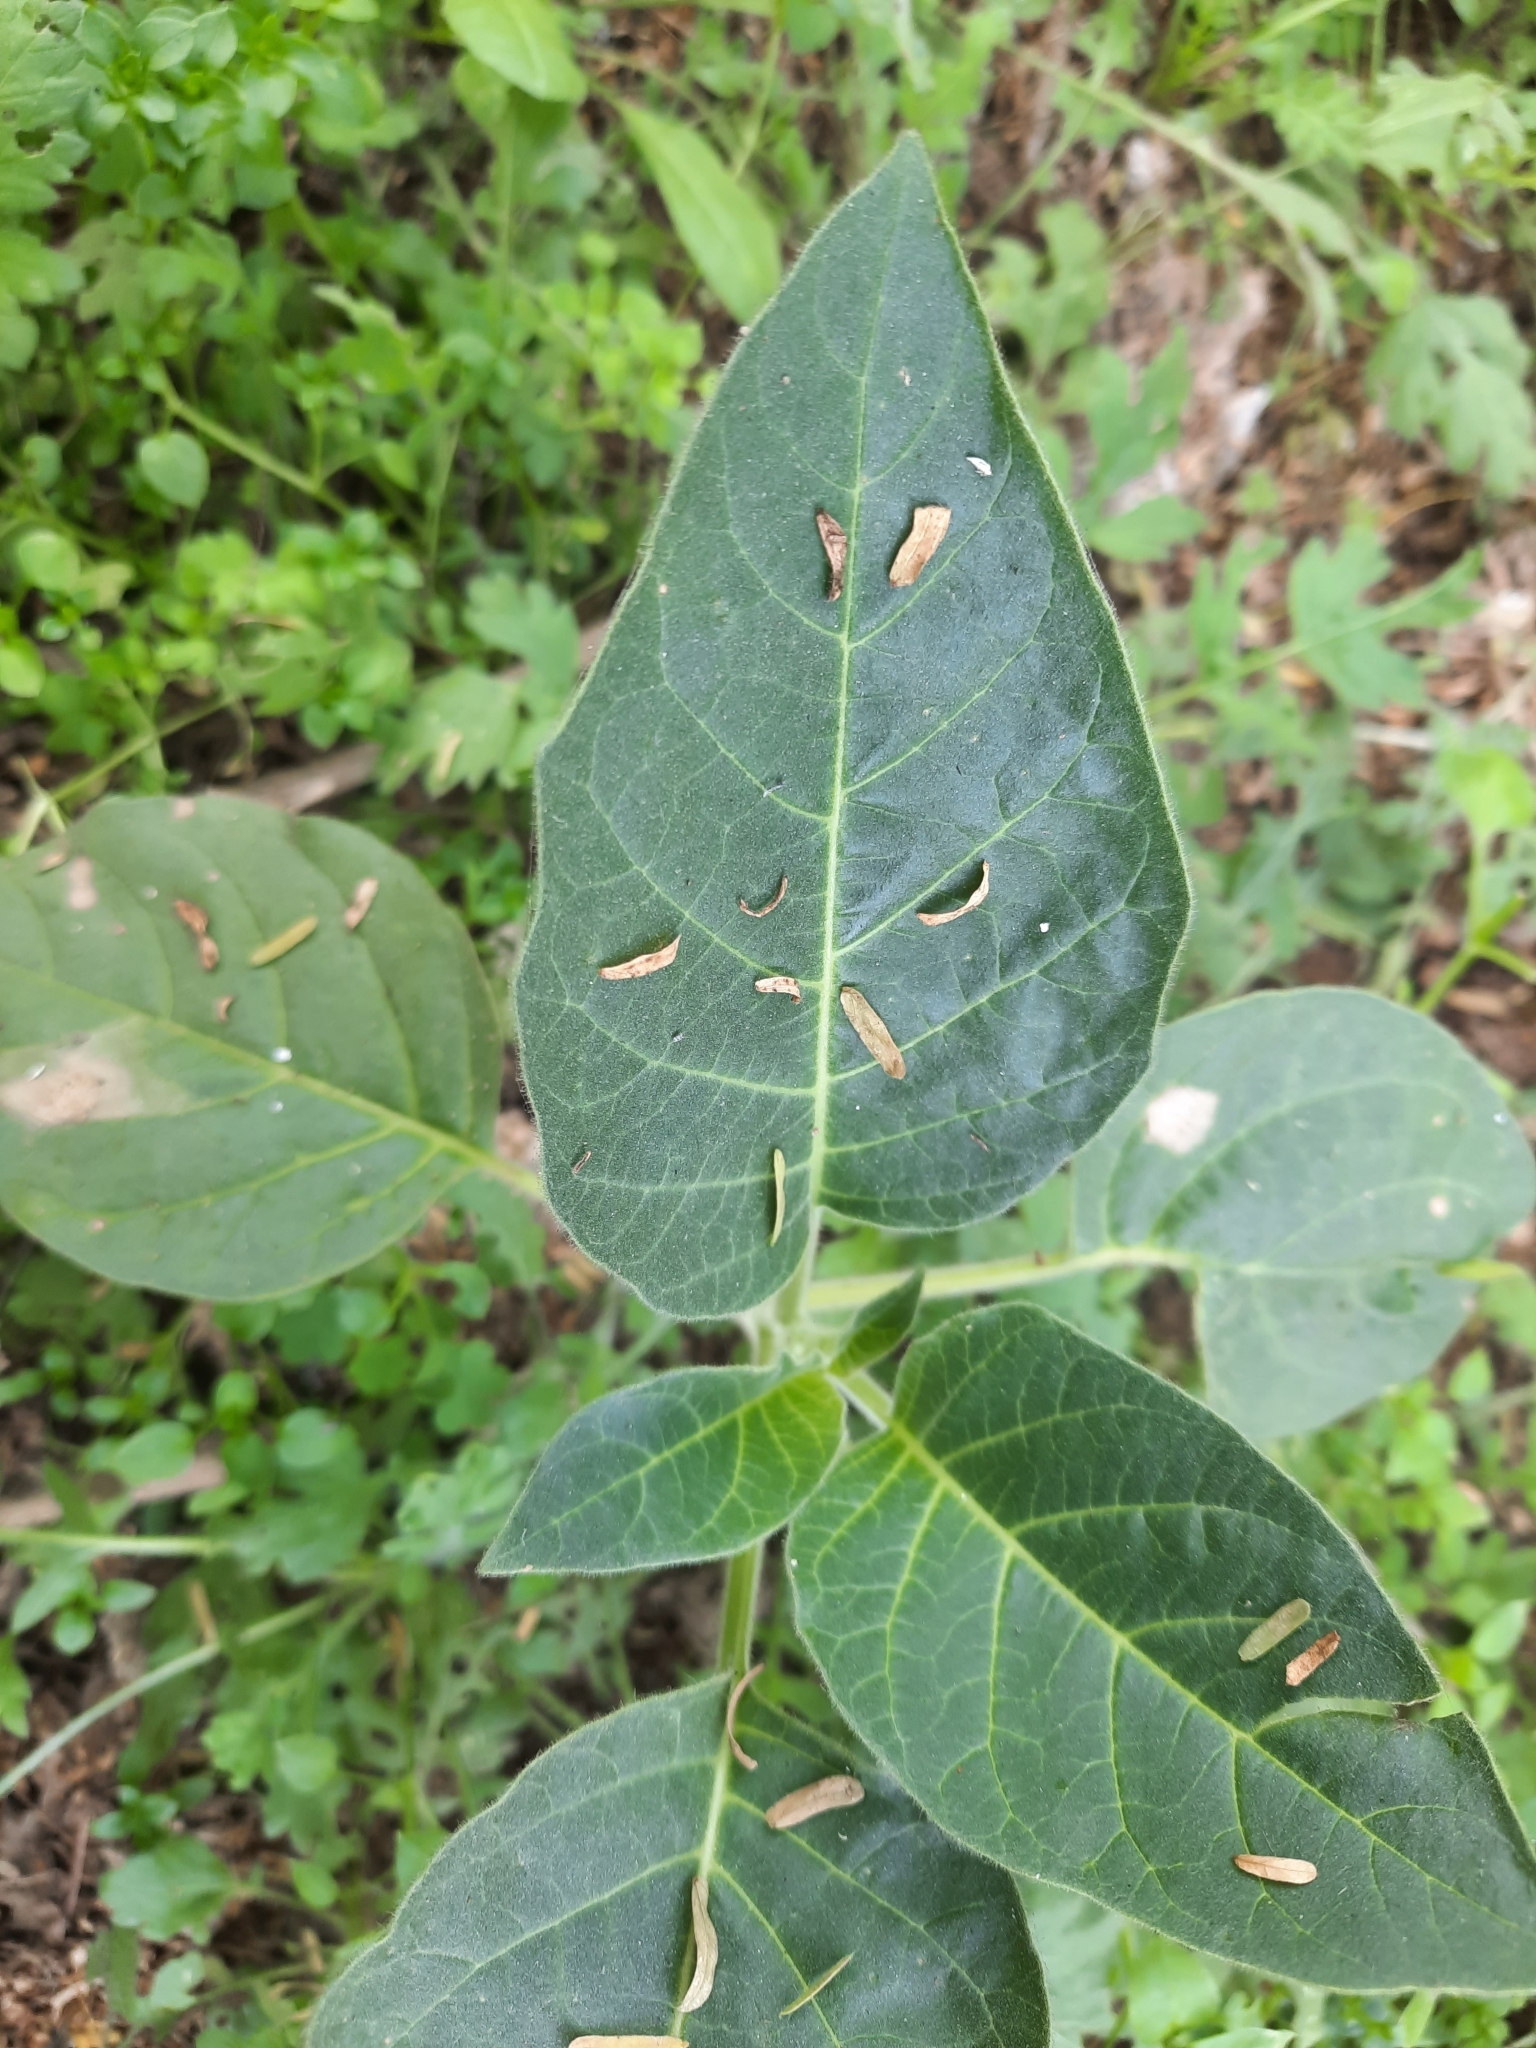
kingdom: Plantae
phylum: Tracheophyta
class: Magnoliopsida
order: Solanales
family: Solanaceae
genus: Datura
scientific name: Datura innoxia
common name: Downy thorn-apple
